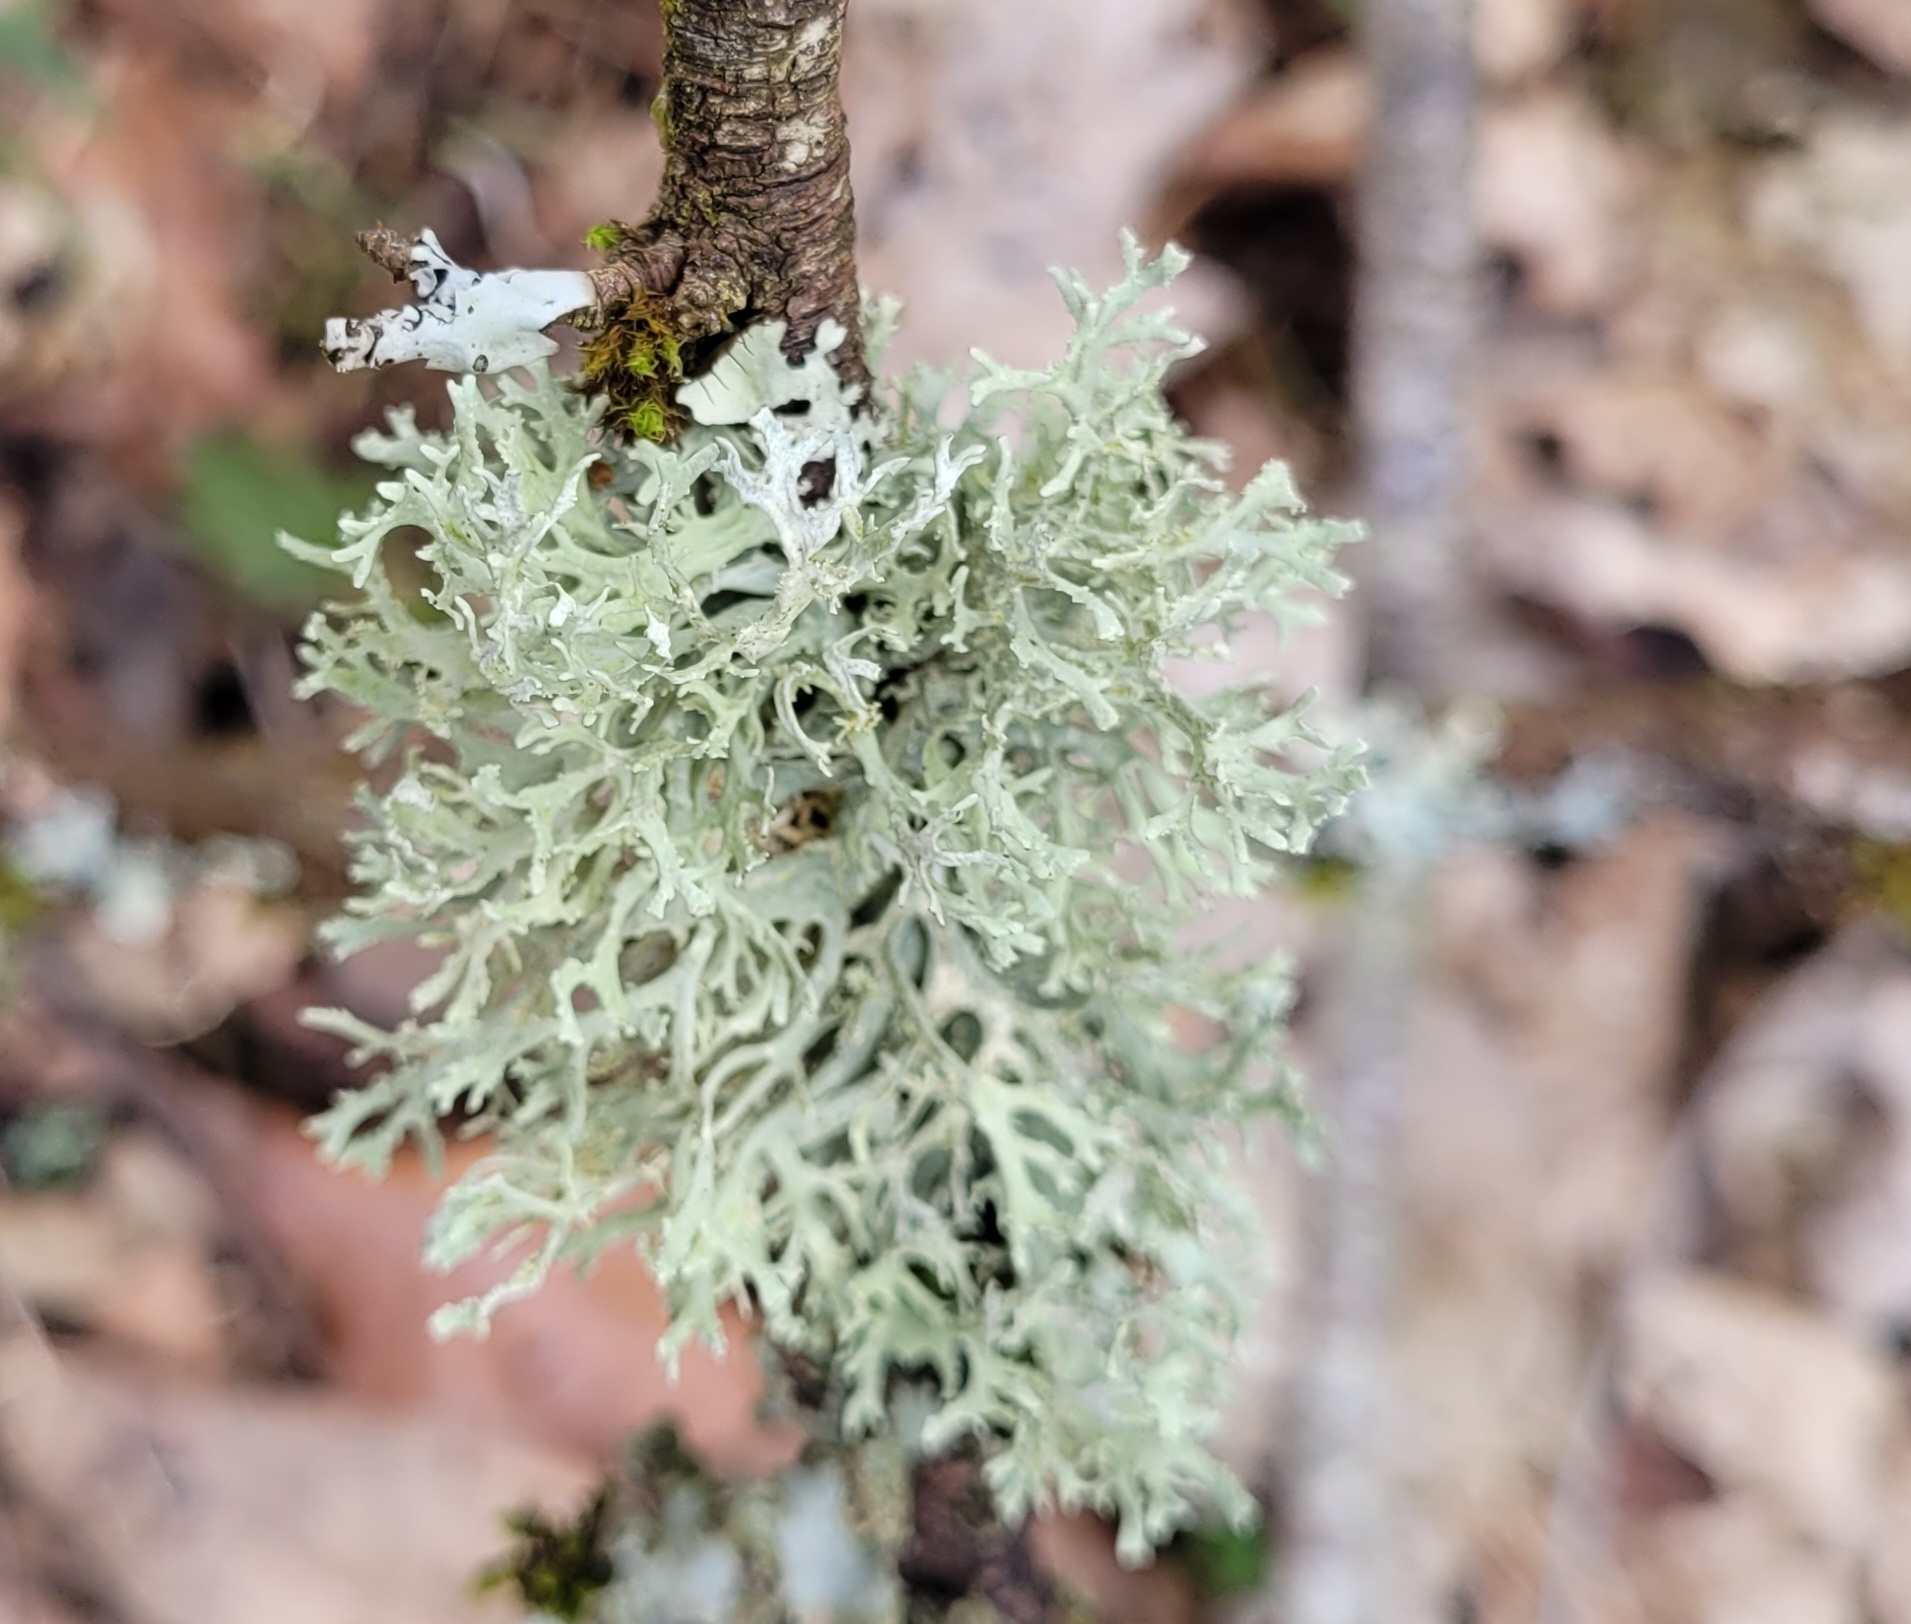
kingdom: Fungi
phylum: Ascomycota
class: Lecanoromycetes
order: Lecanorales
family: Parmeliaceae
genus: Evernia
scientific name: Evernia prunastri
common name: Oak moss
